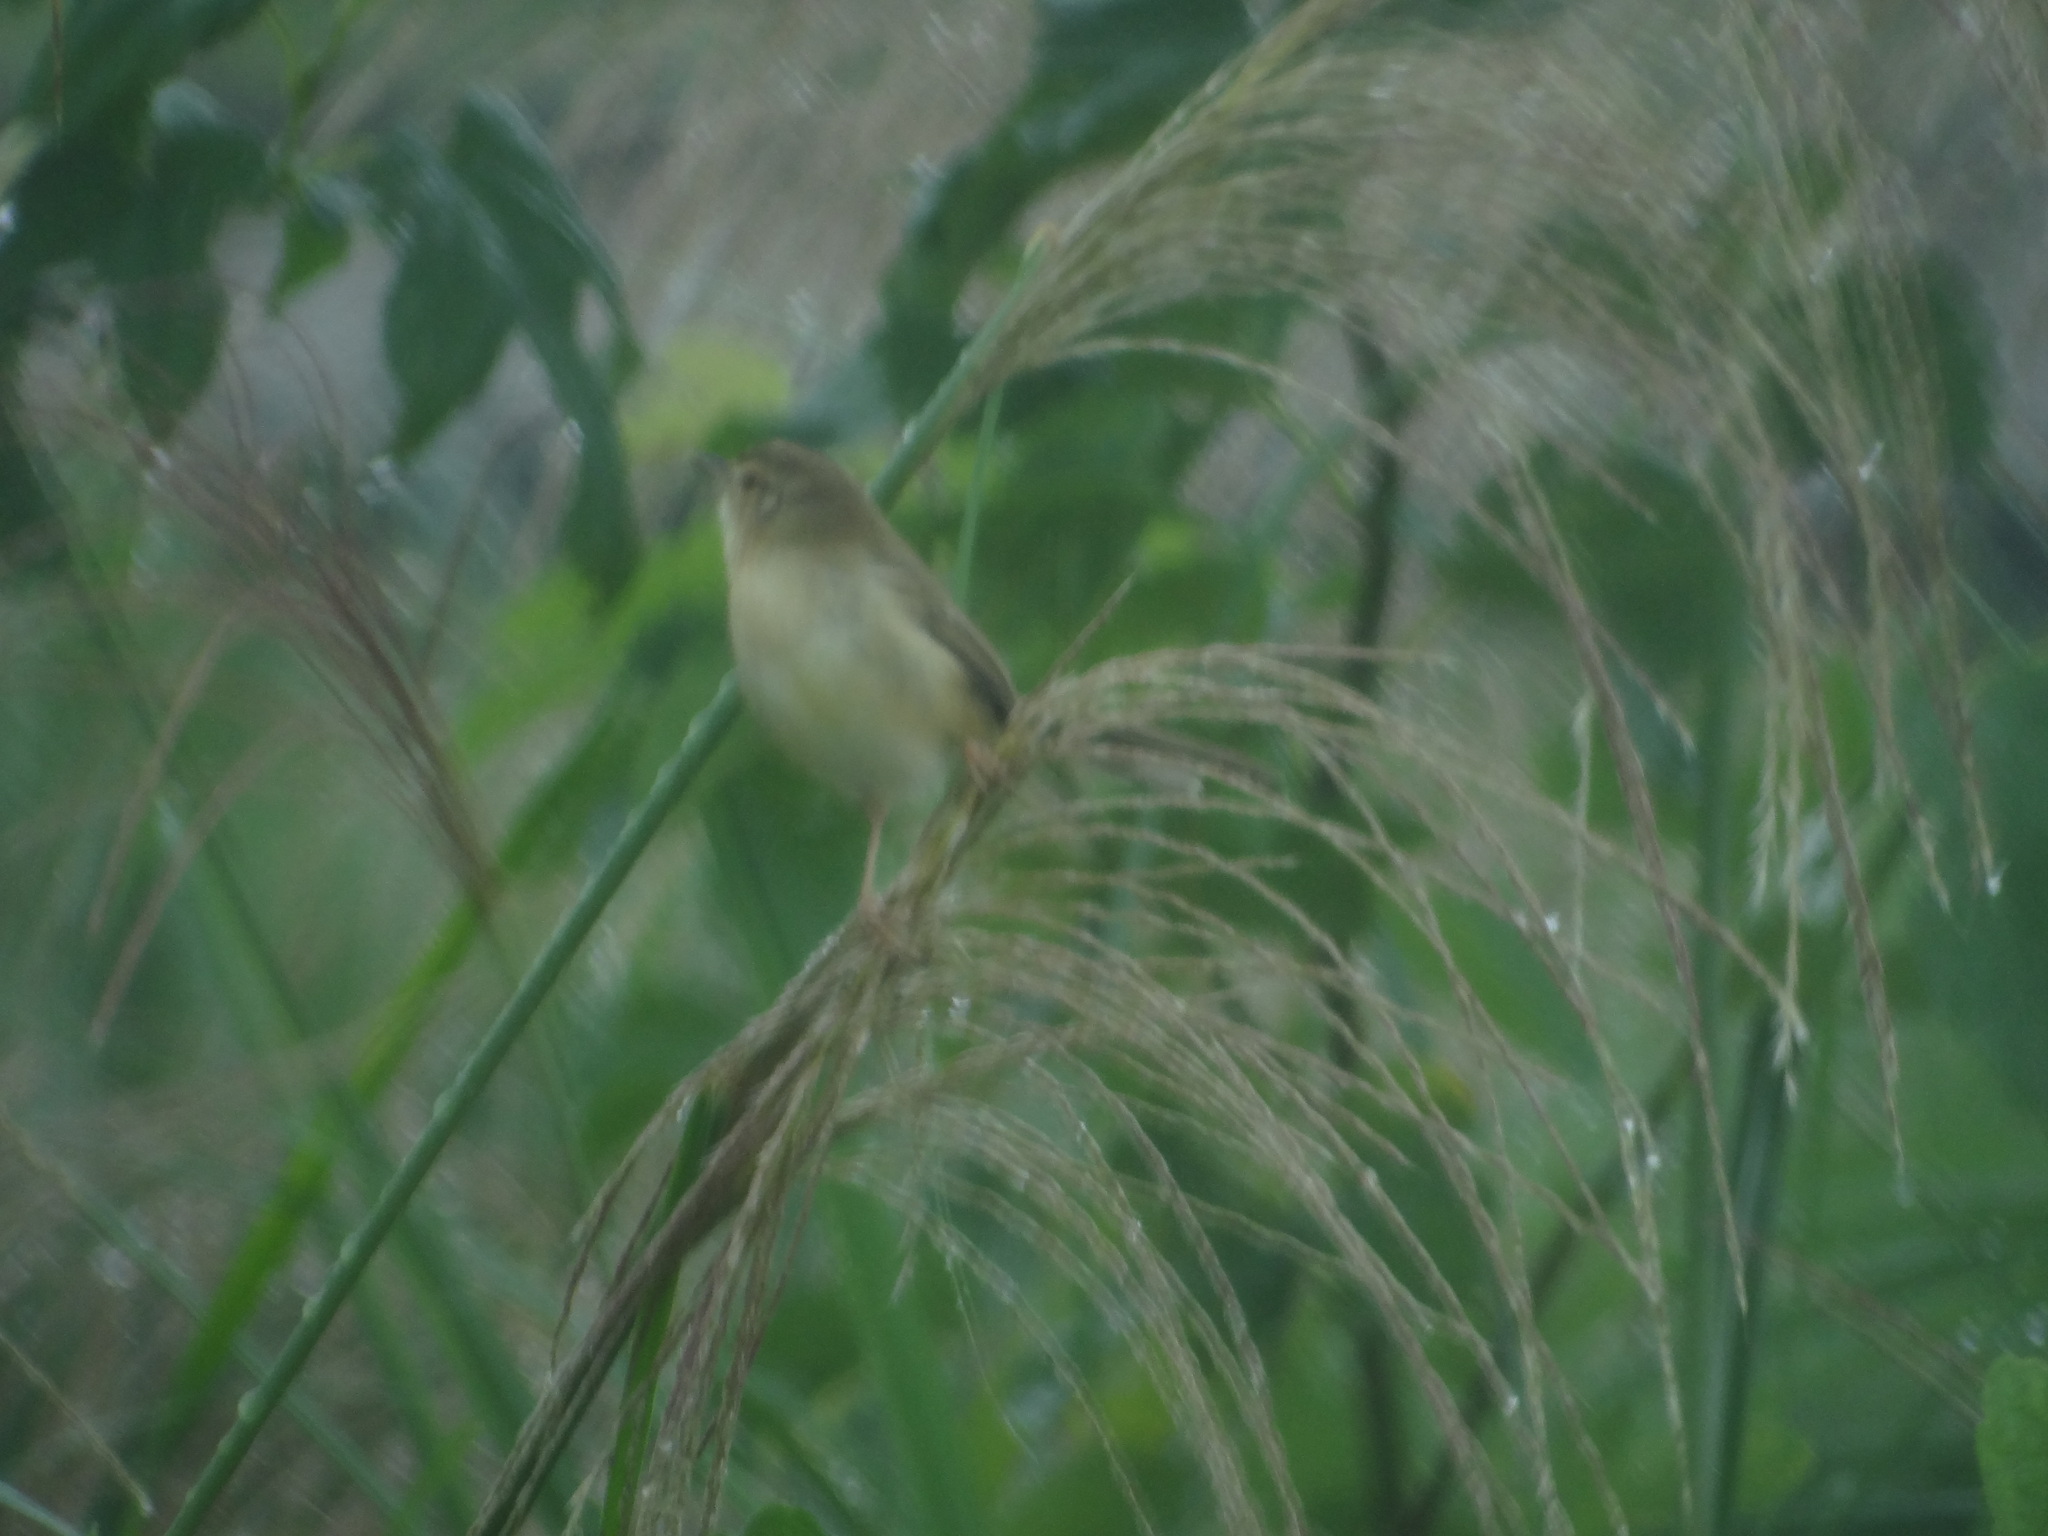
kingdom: Animalia
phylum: Chordata
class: Aves
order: Passeriformes
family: Cisticolidae
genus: Prinia
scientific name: Prinia inornata
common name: Plain prinia
